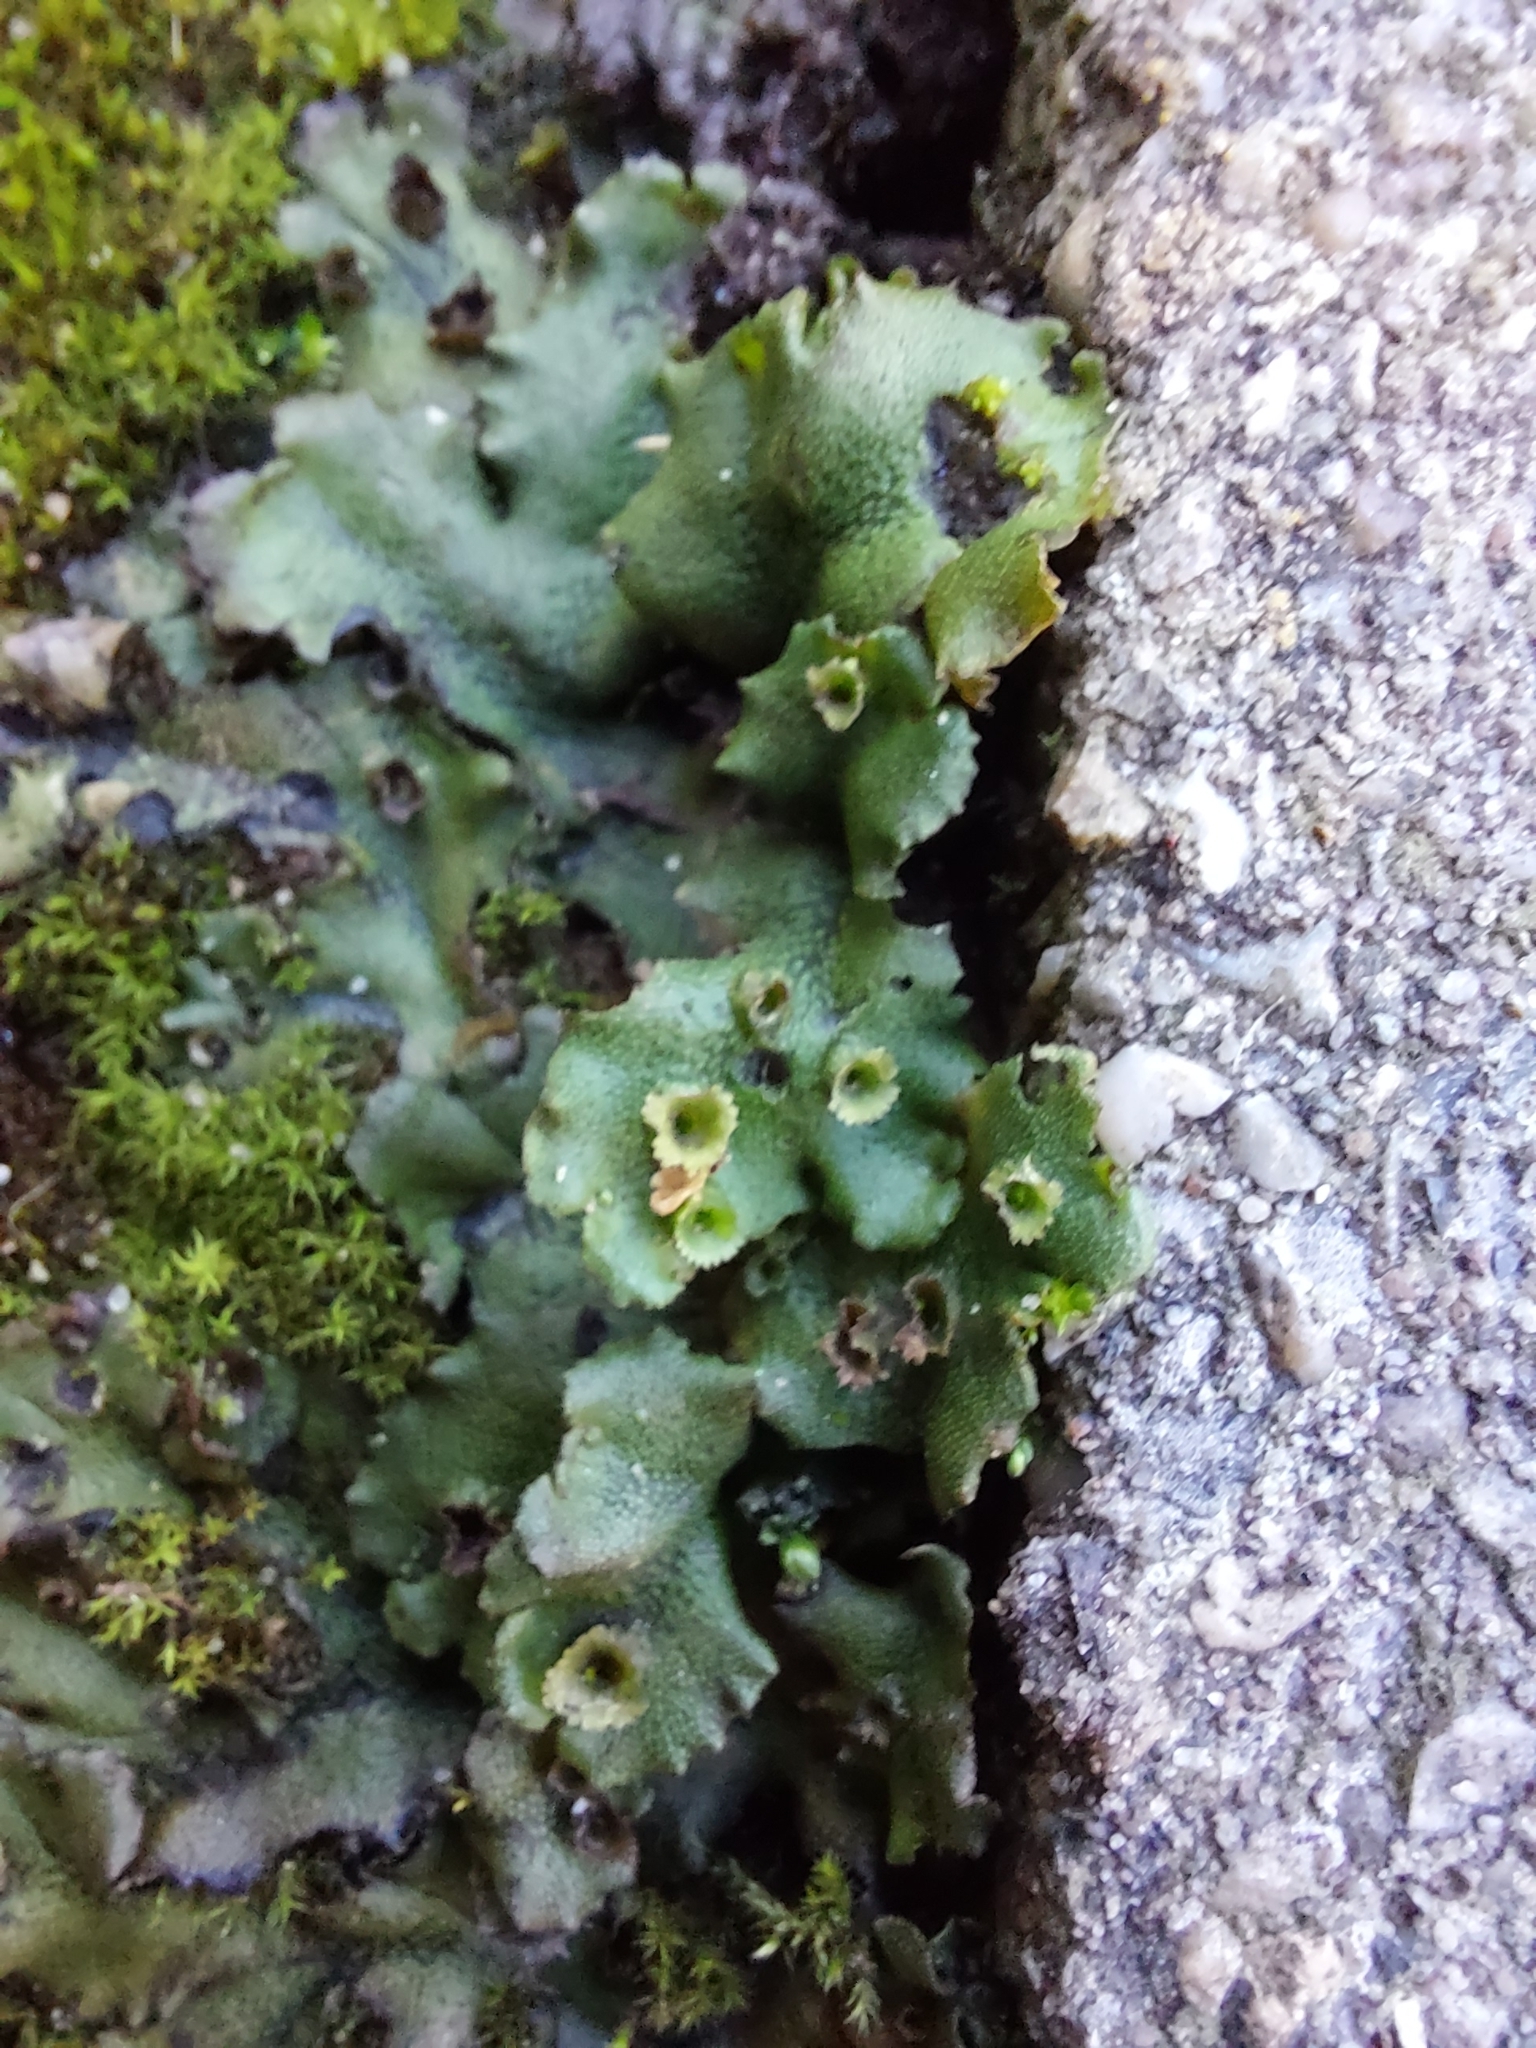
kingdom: Plantae
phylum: Marchantiophyta
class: Marchantiopsida
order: Marchantiales
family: Marchantiaceae
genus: Marchantia
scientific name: Marchantia polymorpha
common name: Common liverwort
